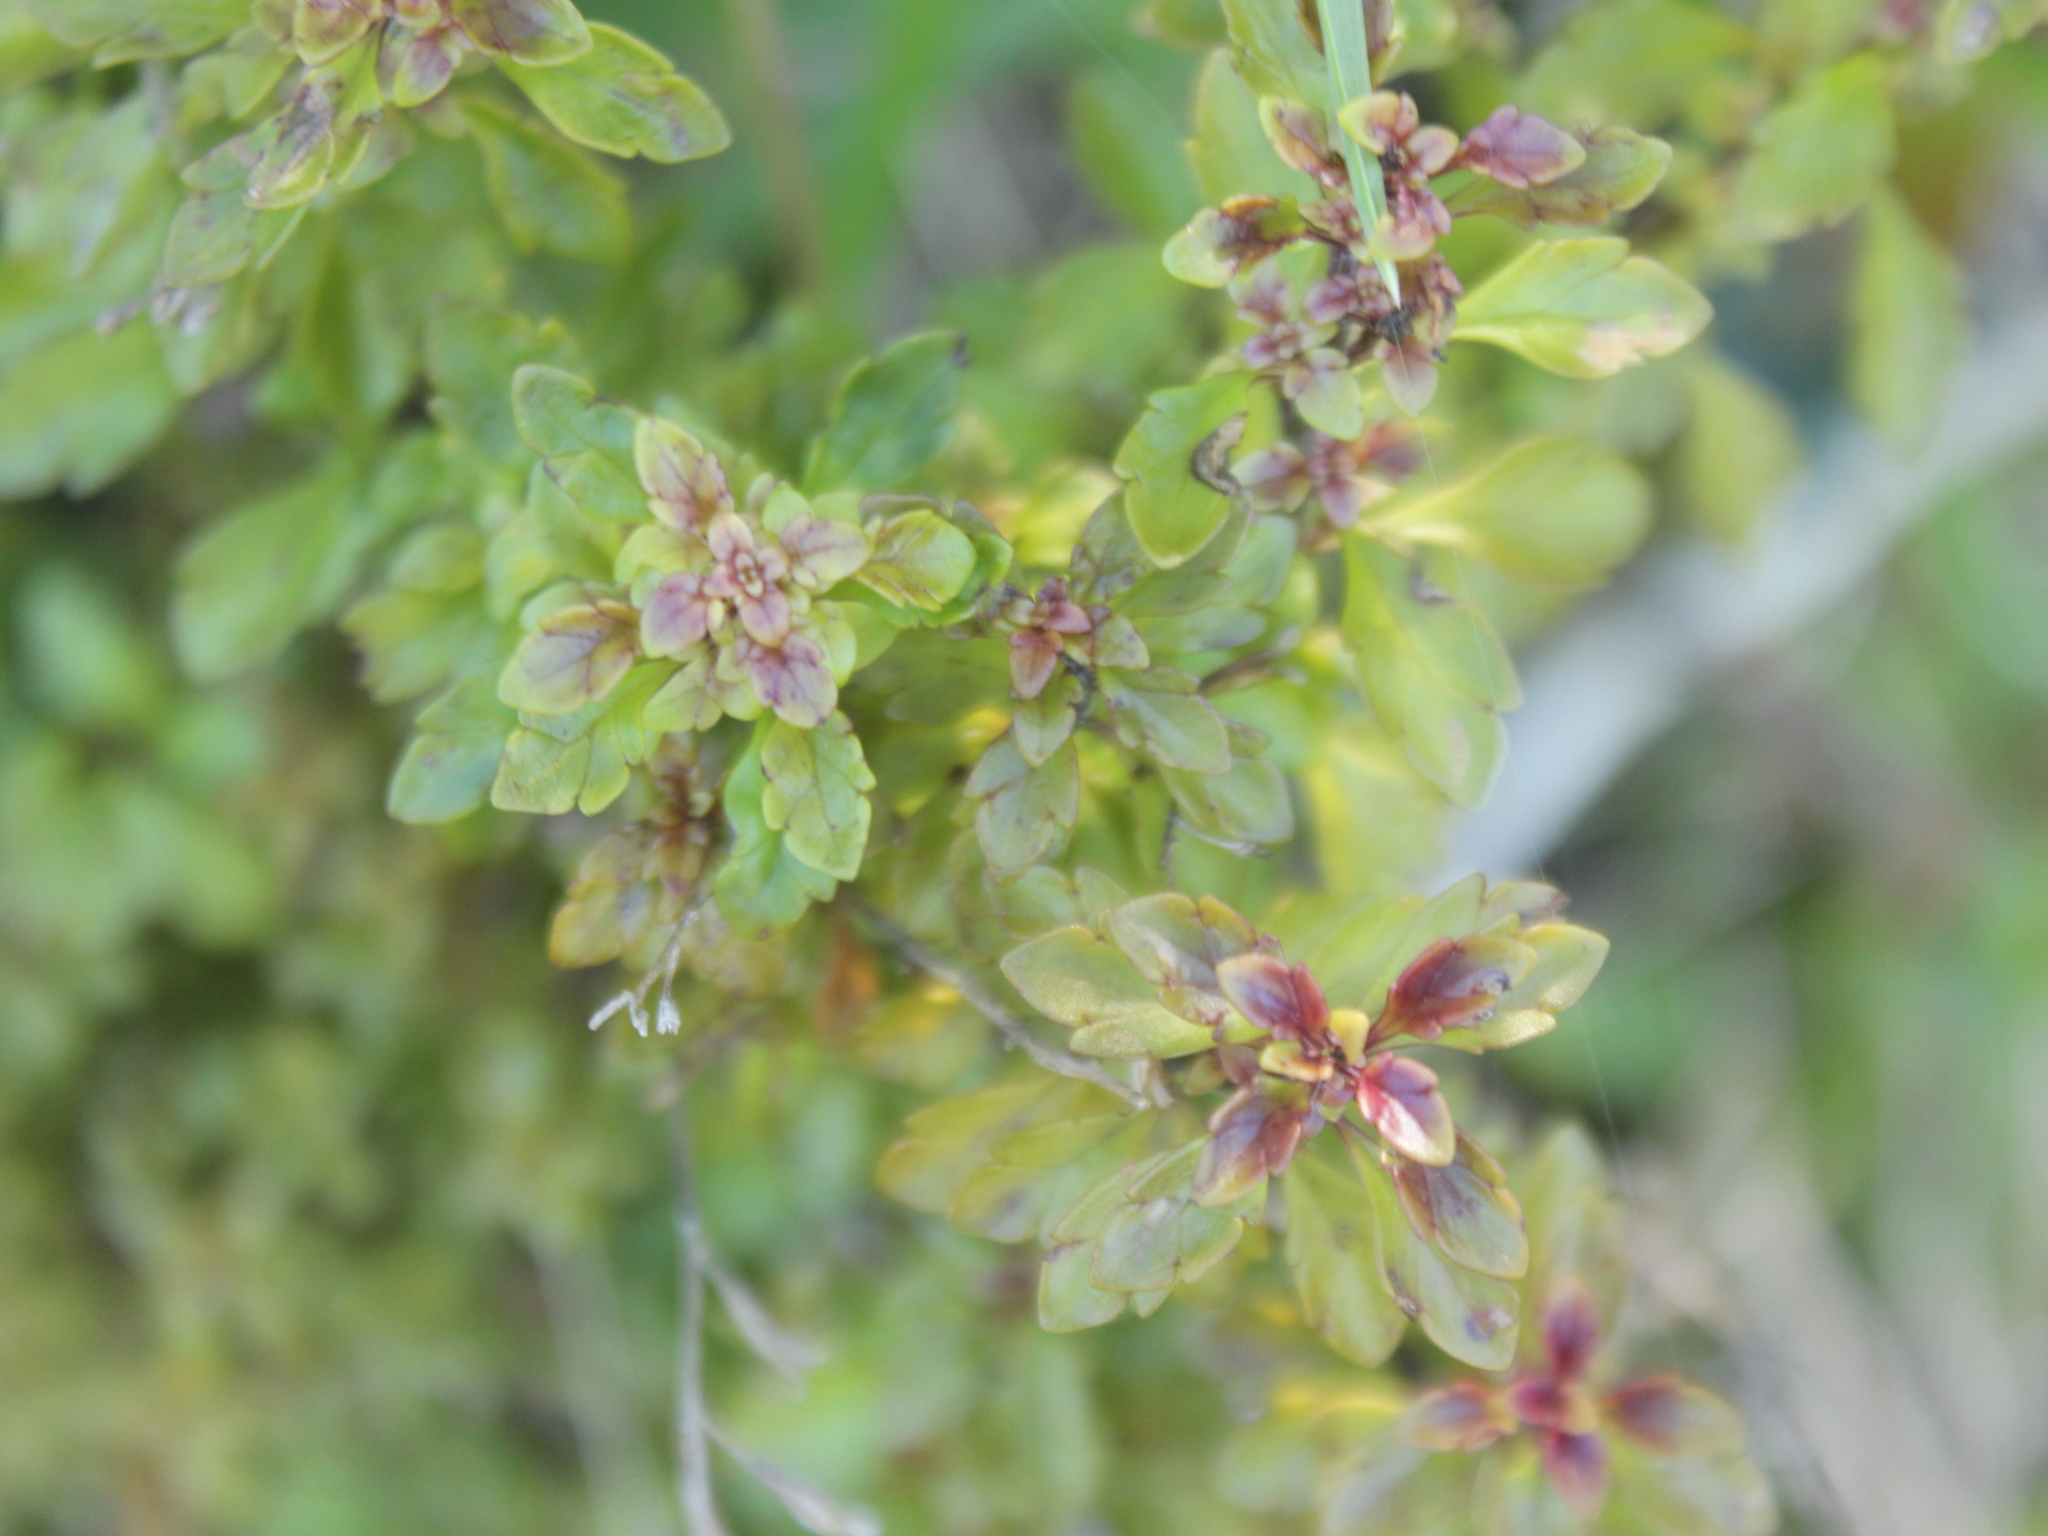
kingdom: Plantae
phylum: Tracheophyta
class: Magnoliopsida
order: Lamiales
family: Orobanchaceae
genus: Euphrasia
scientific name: Euphrasia cuneata
